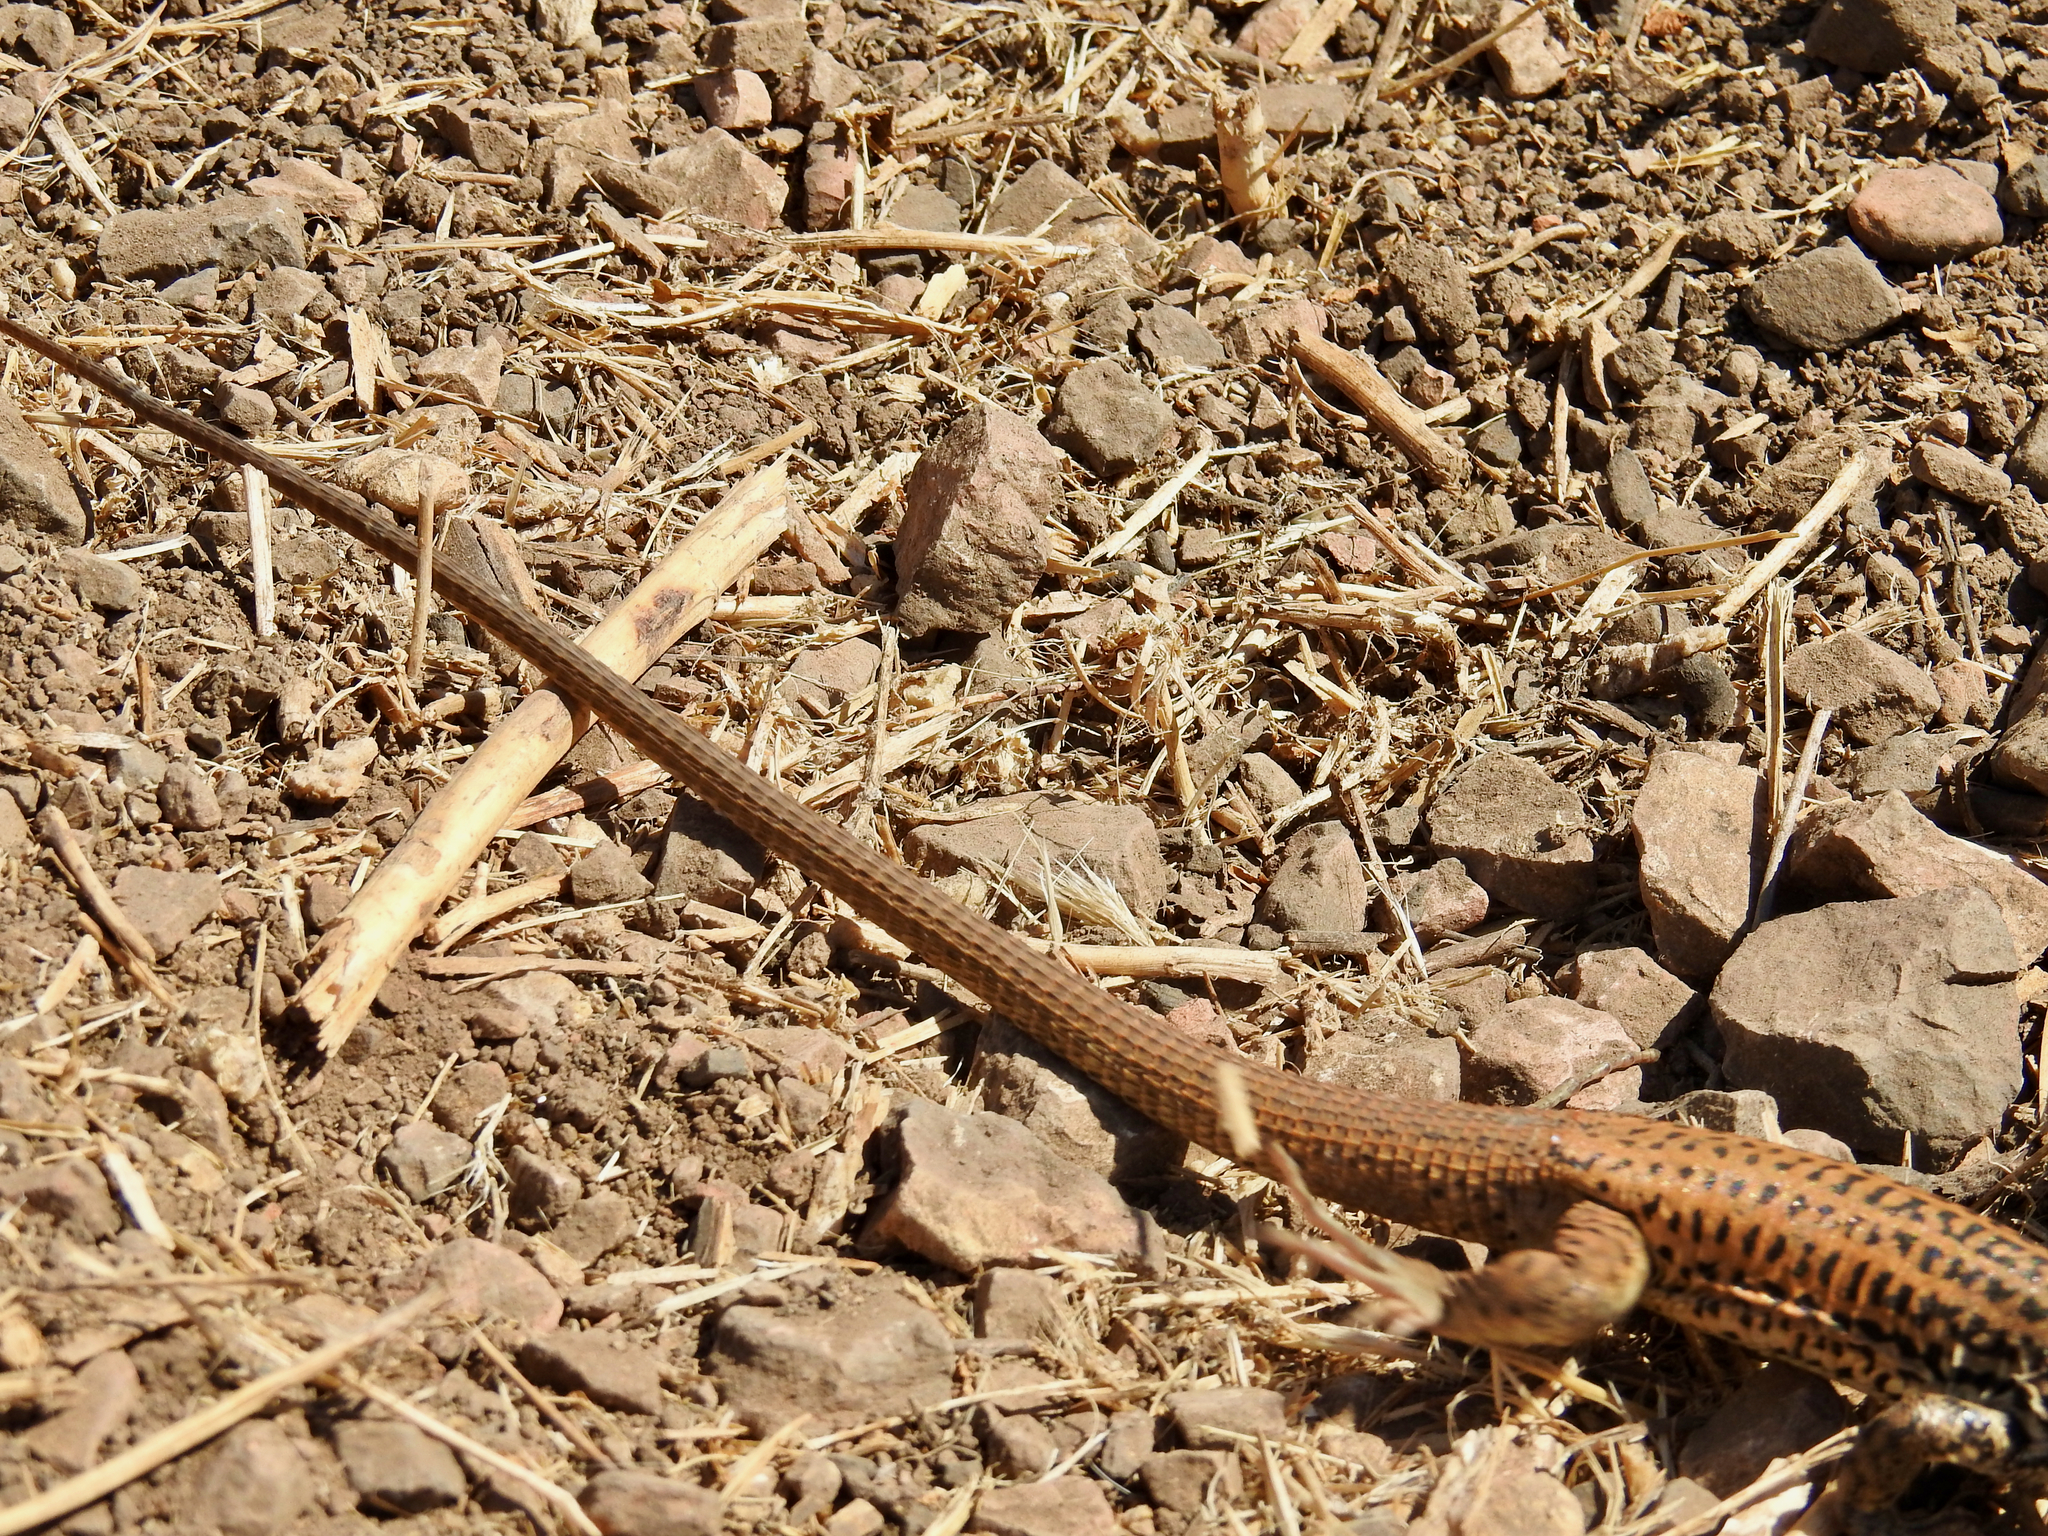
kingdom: Animalia
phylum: Chordata
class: Squamata
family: Teiidae
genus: Aspidoscelis
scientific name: Aspidoscelis tigris
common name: Tiger whiptail
